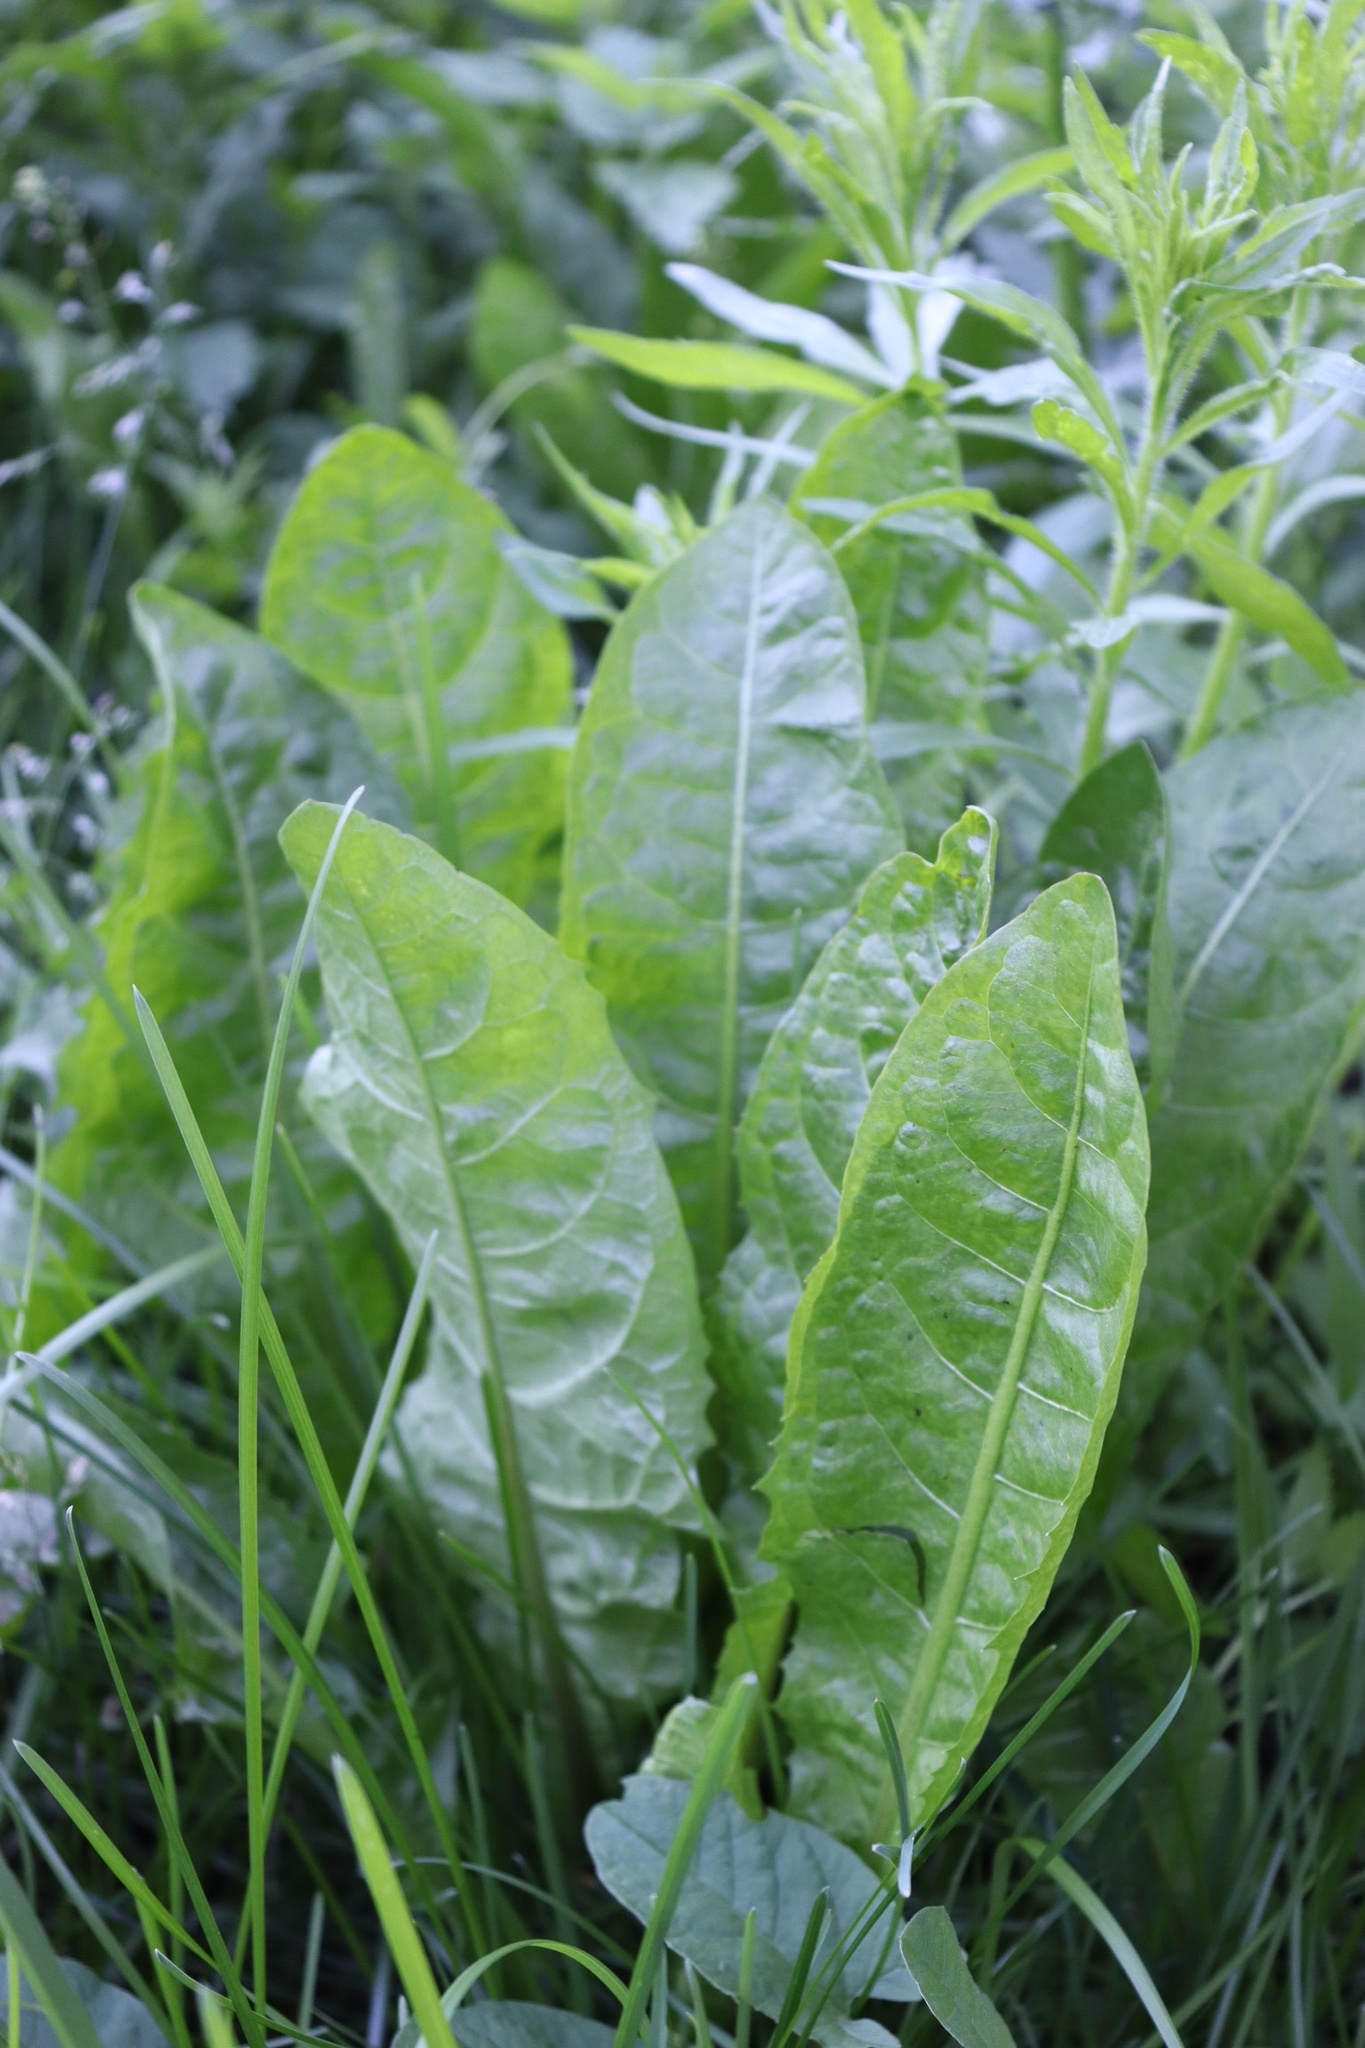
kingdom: Plantae
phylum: Tracheophyta
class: Magnoliopsida
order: Asterales
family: Asteraceae
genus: Taraxacum
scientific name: Taraxacum officinale
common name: Common dandelion
